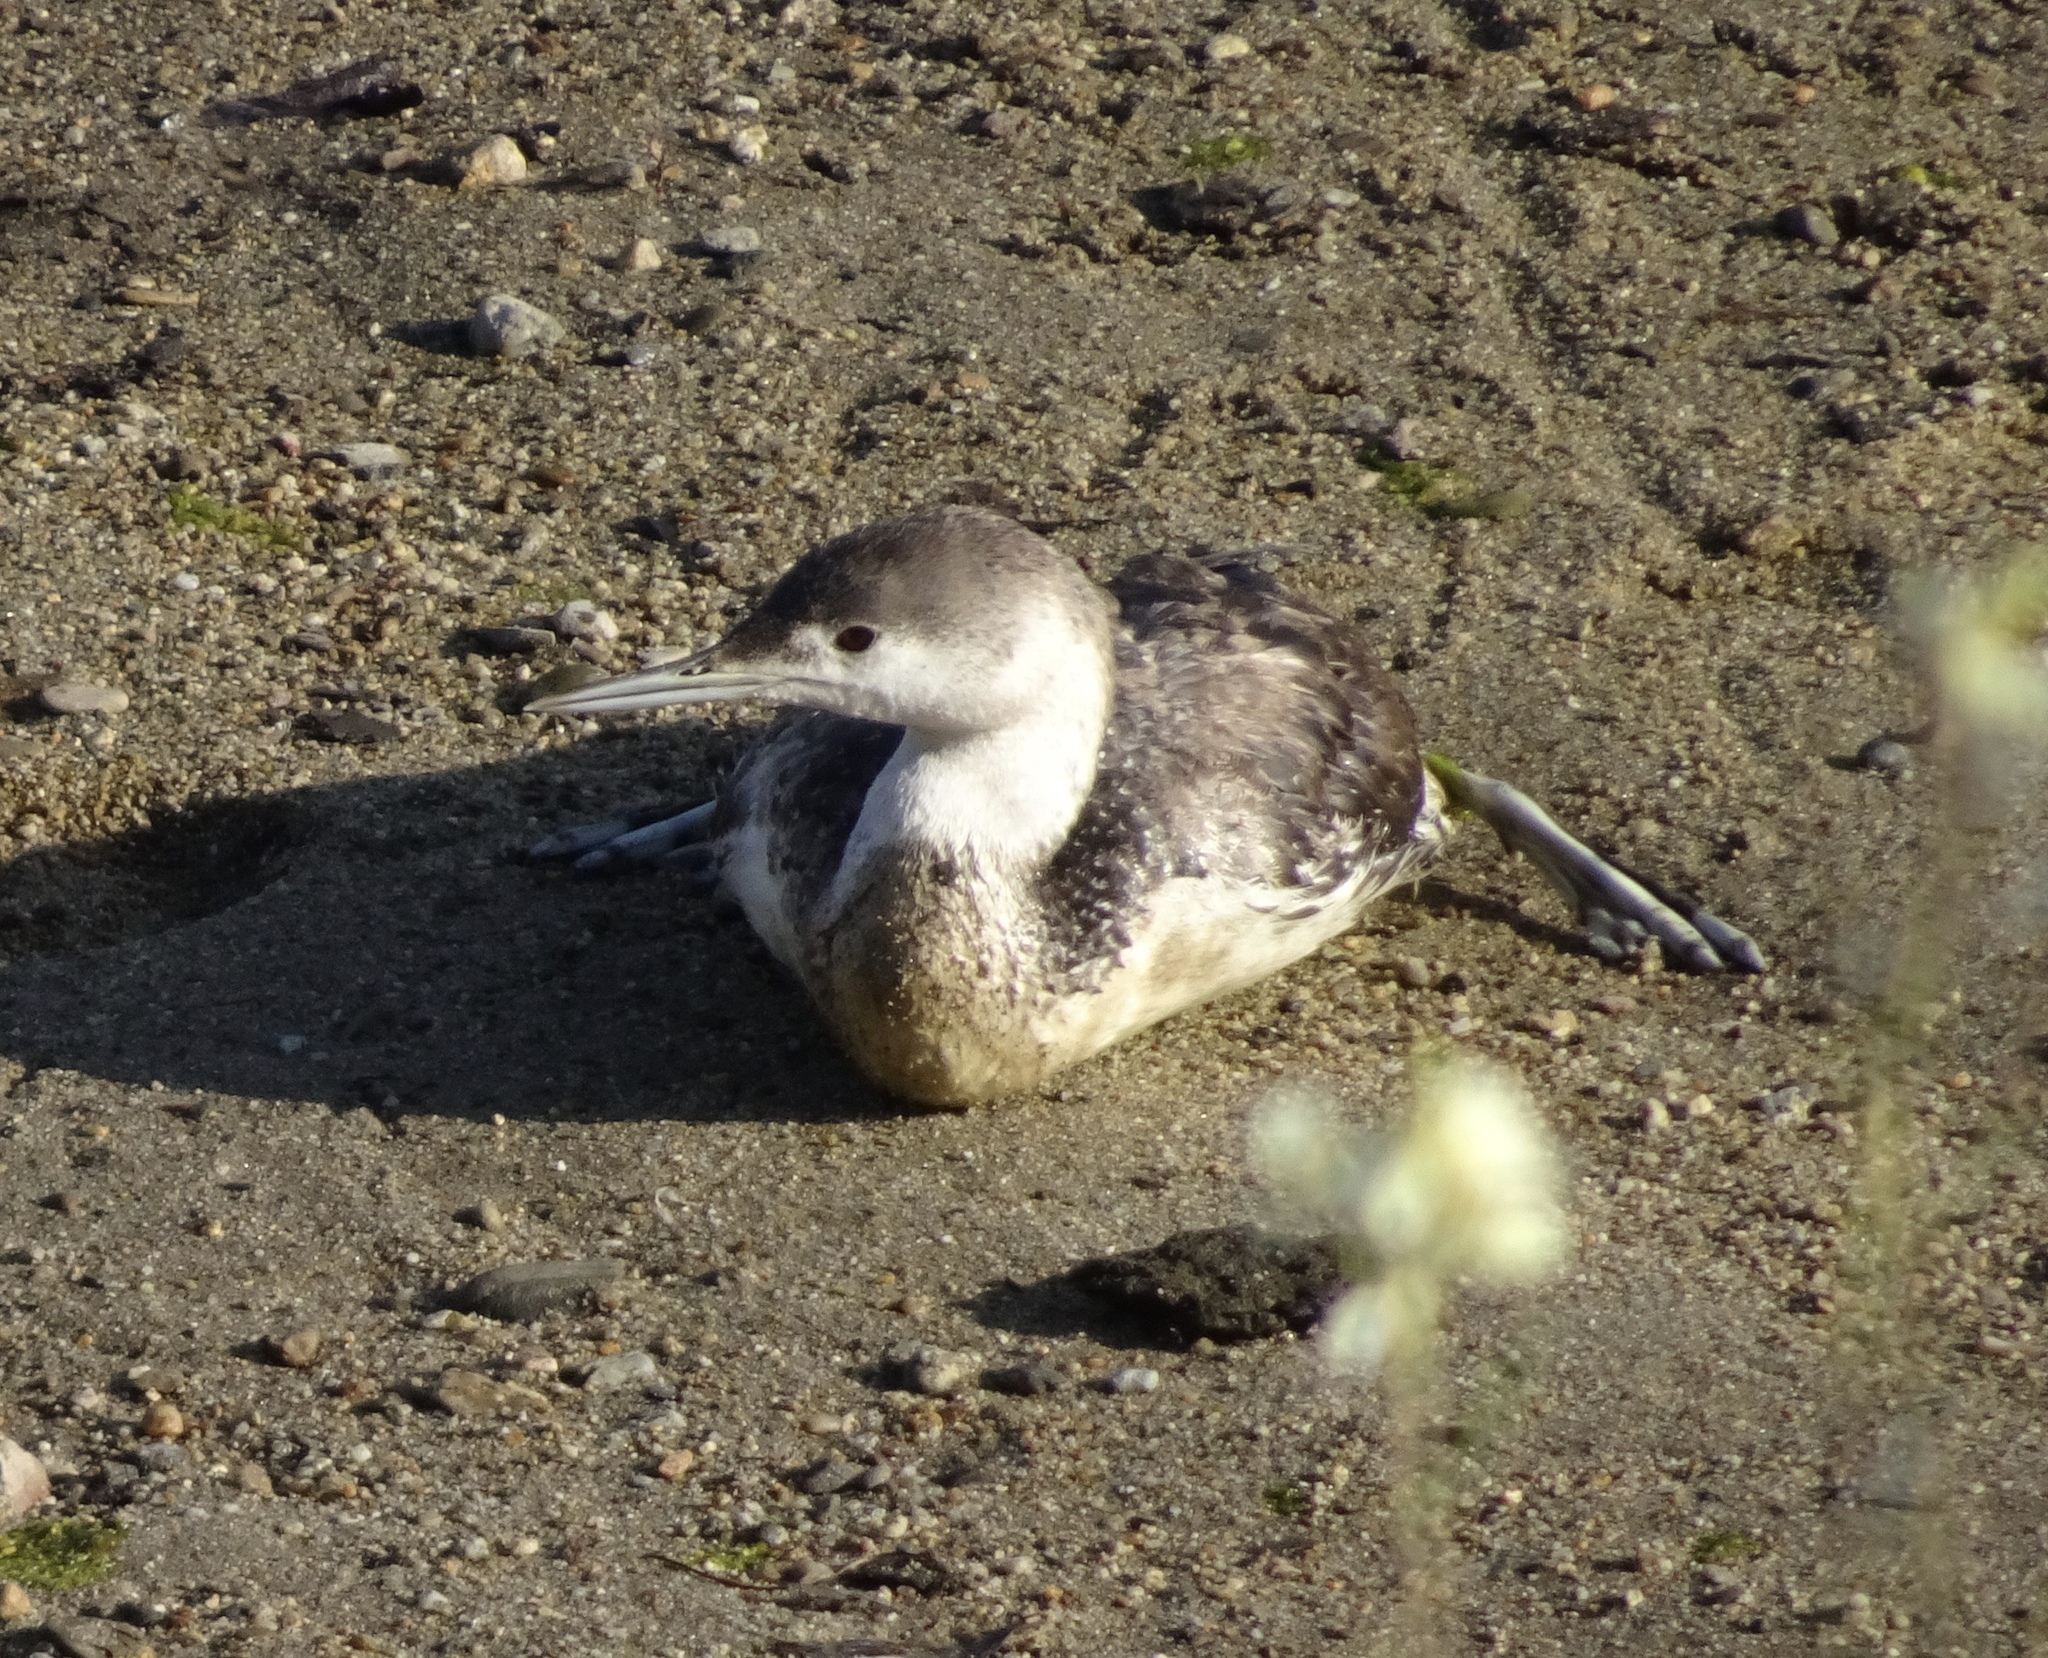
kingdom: Animalia
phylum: Chordata
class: Aves
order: Gaviiformes
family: Gaviidae
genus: Gavia
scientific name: Gavia stellata
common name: Red-throated loon
